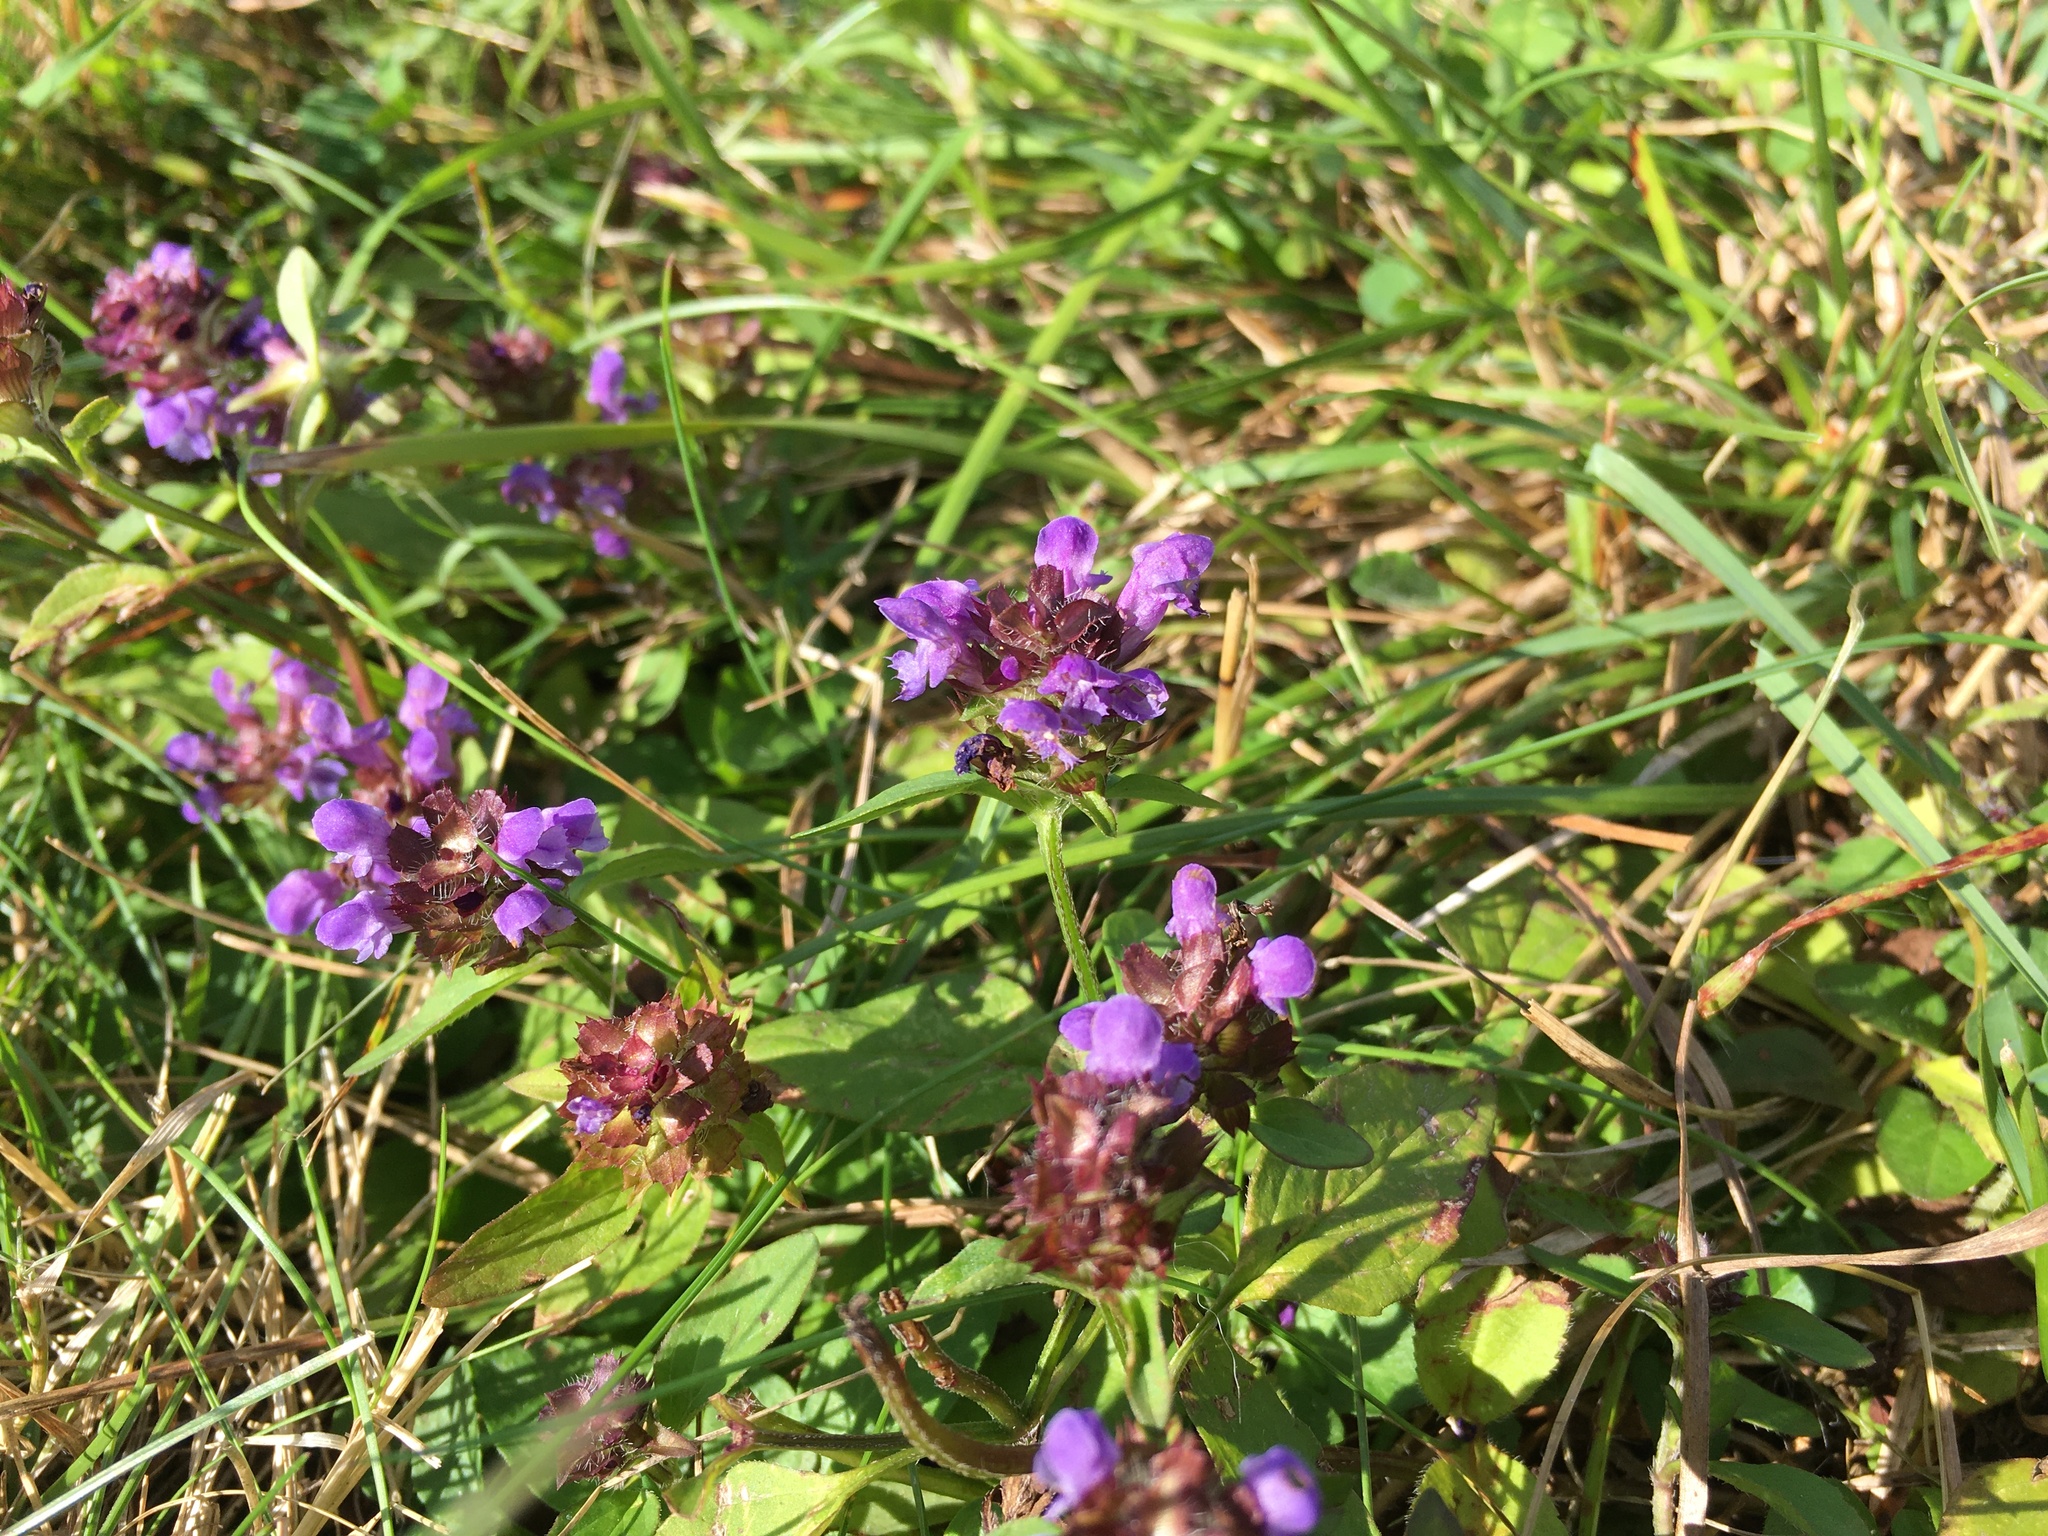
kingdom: Plantae
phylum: Tracheophyta
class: Magnoliopsida
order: Lamiales
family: Lamiaceae
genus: Prunella
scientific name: Prunella vulgaris
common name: Heal-all
